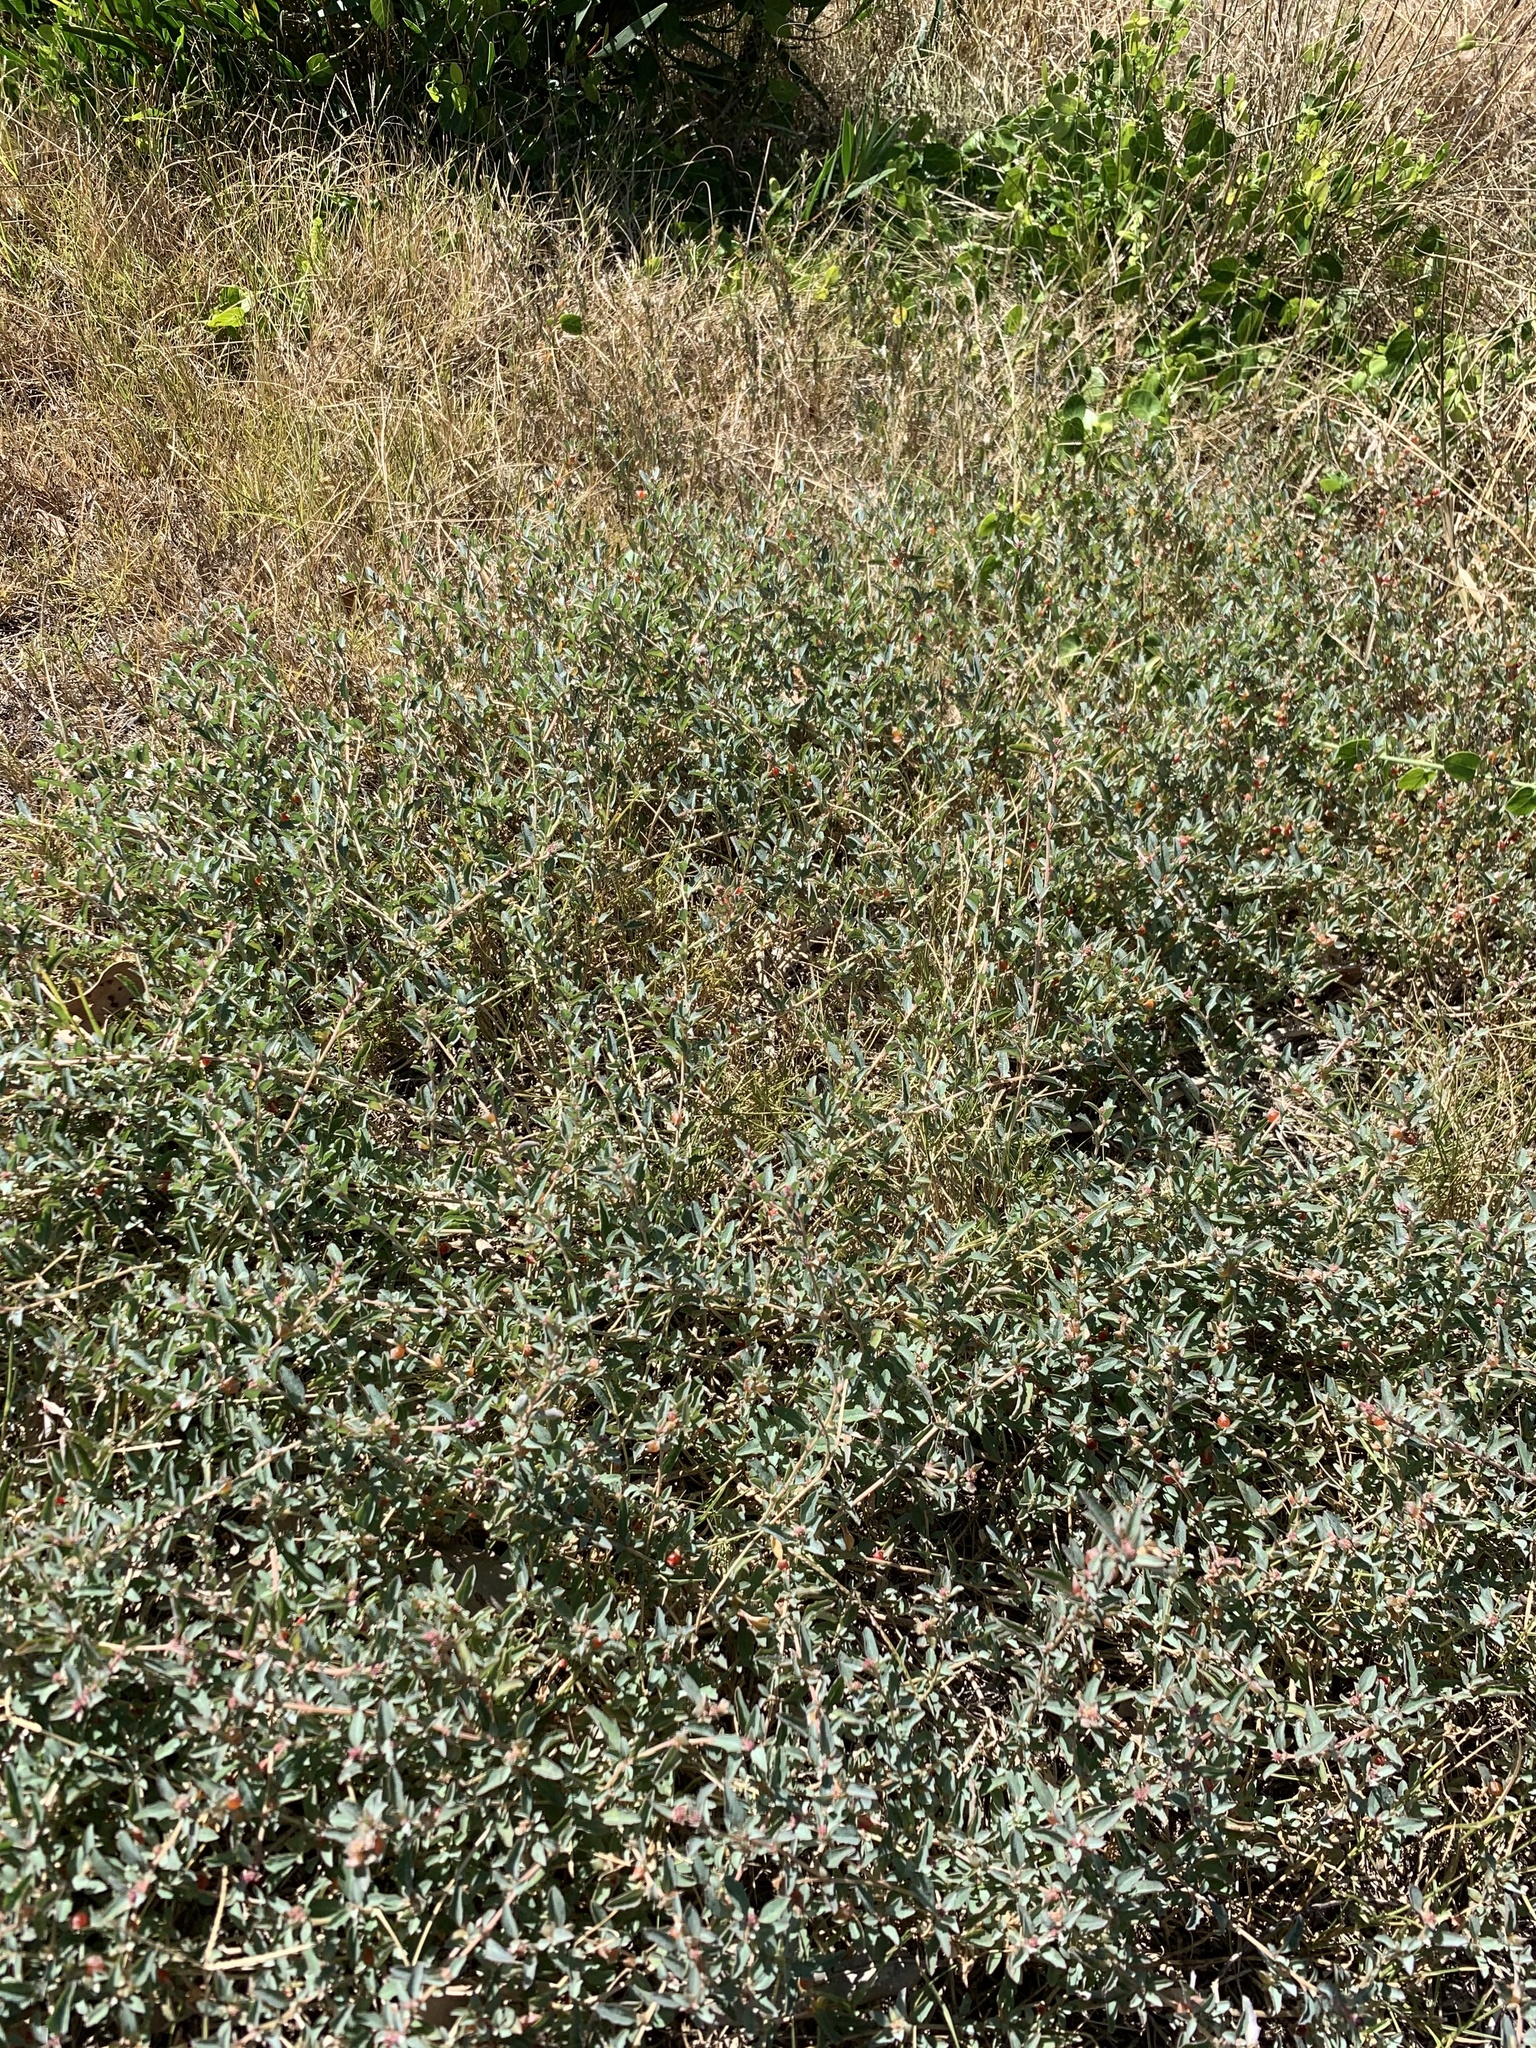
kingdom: Plantae
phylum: Tracheophyta
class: Magnoliopsida
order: Caryophyllales
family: Amaranthaceae
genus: Atriplex
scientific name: Atriplex semibaccata
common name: Australian saltbush
